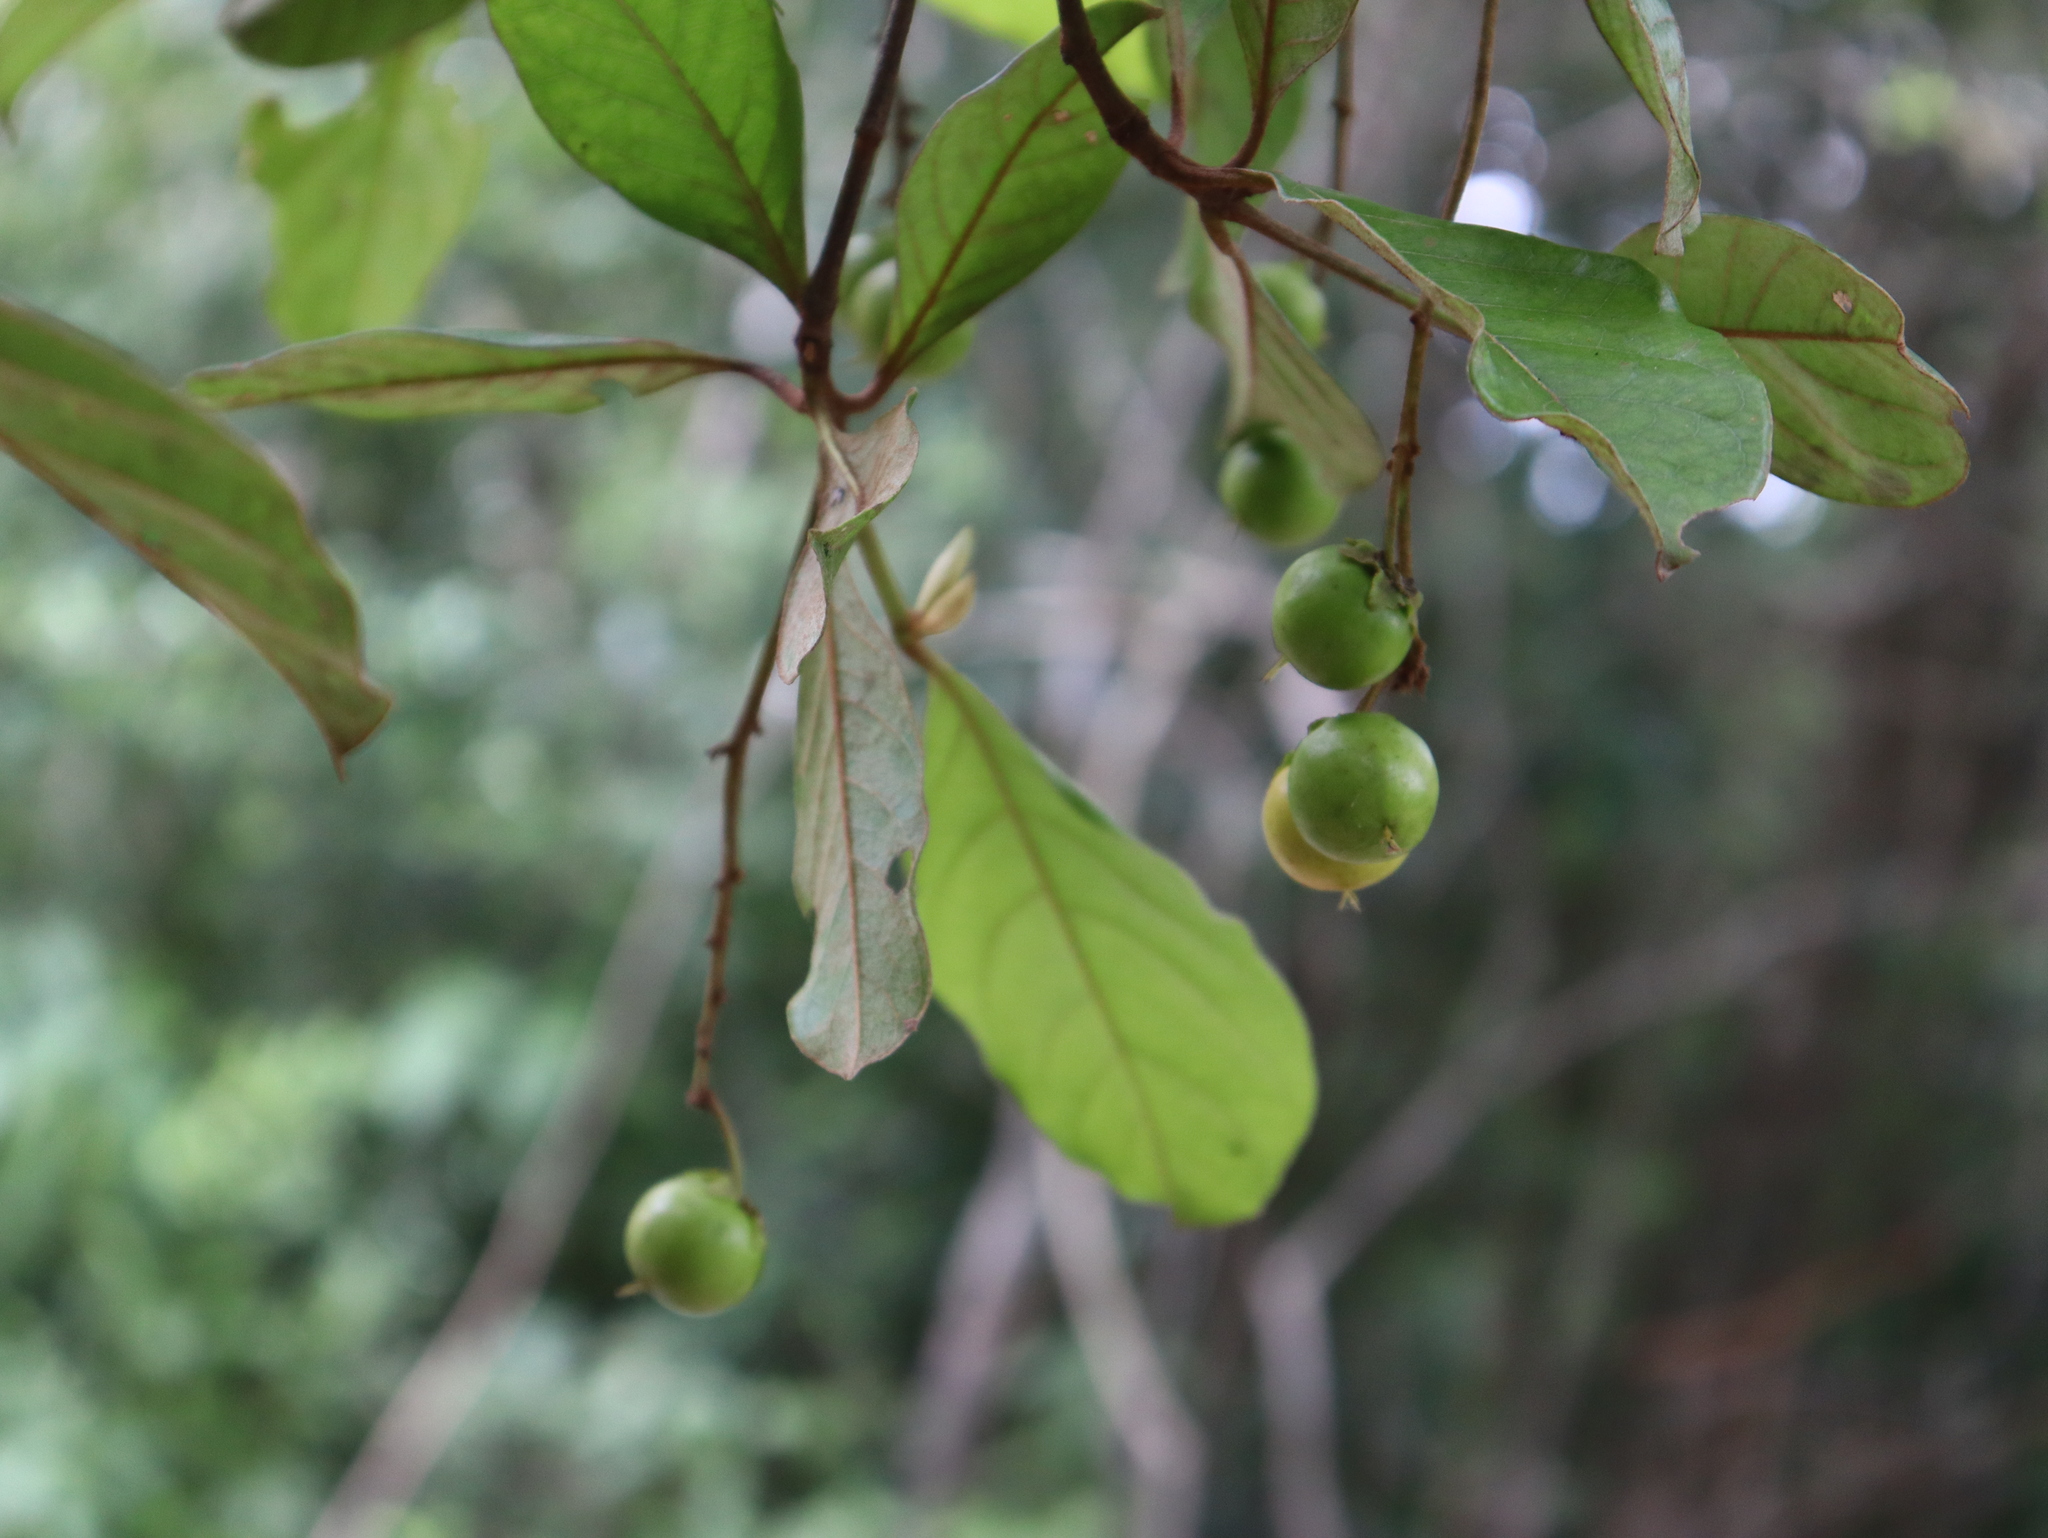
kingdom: Plantae
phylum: Tracheophyta
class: Magnoliopsida
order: Malpighiales
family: Malpighiaceae
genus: Byrsonima
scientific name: Byrsonima crassifolia
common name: Golden spoon
